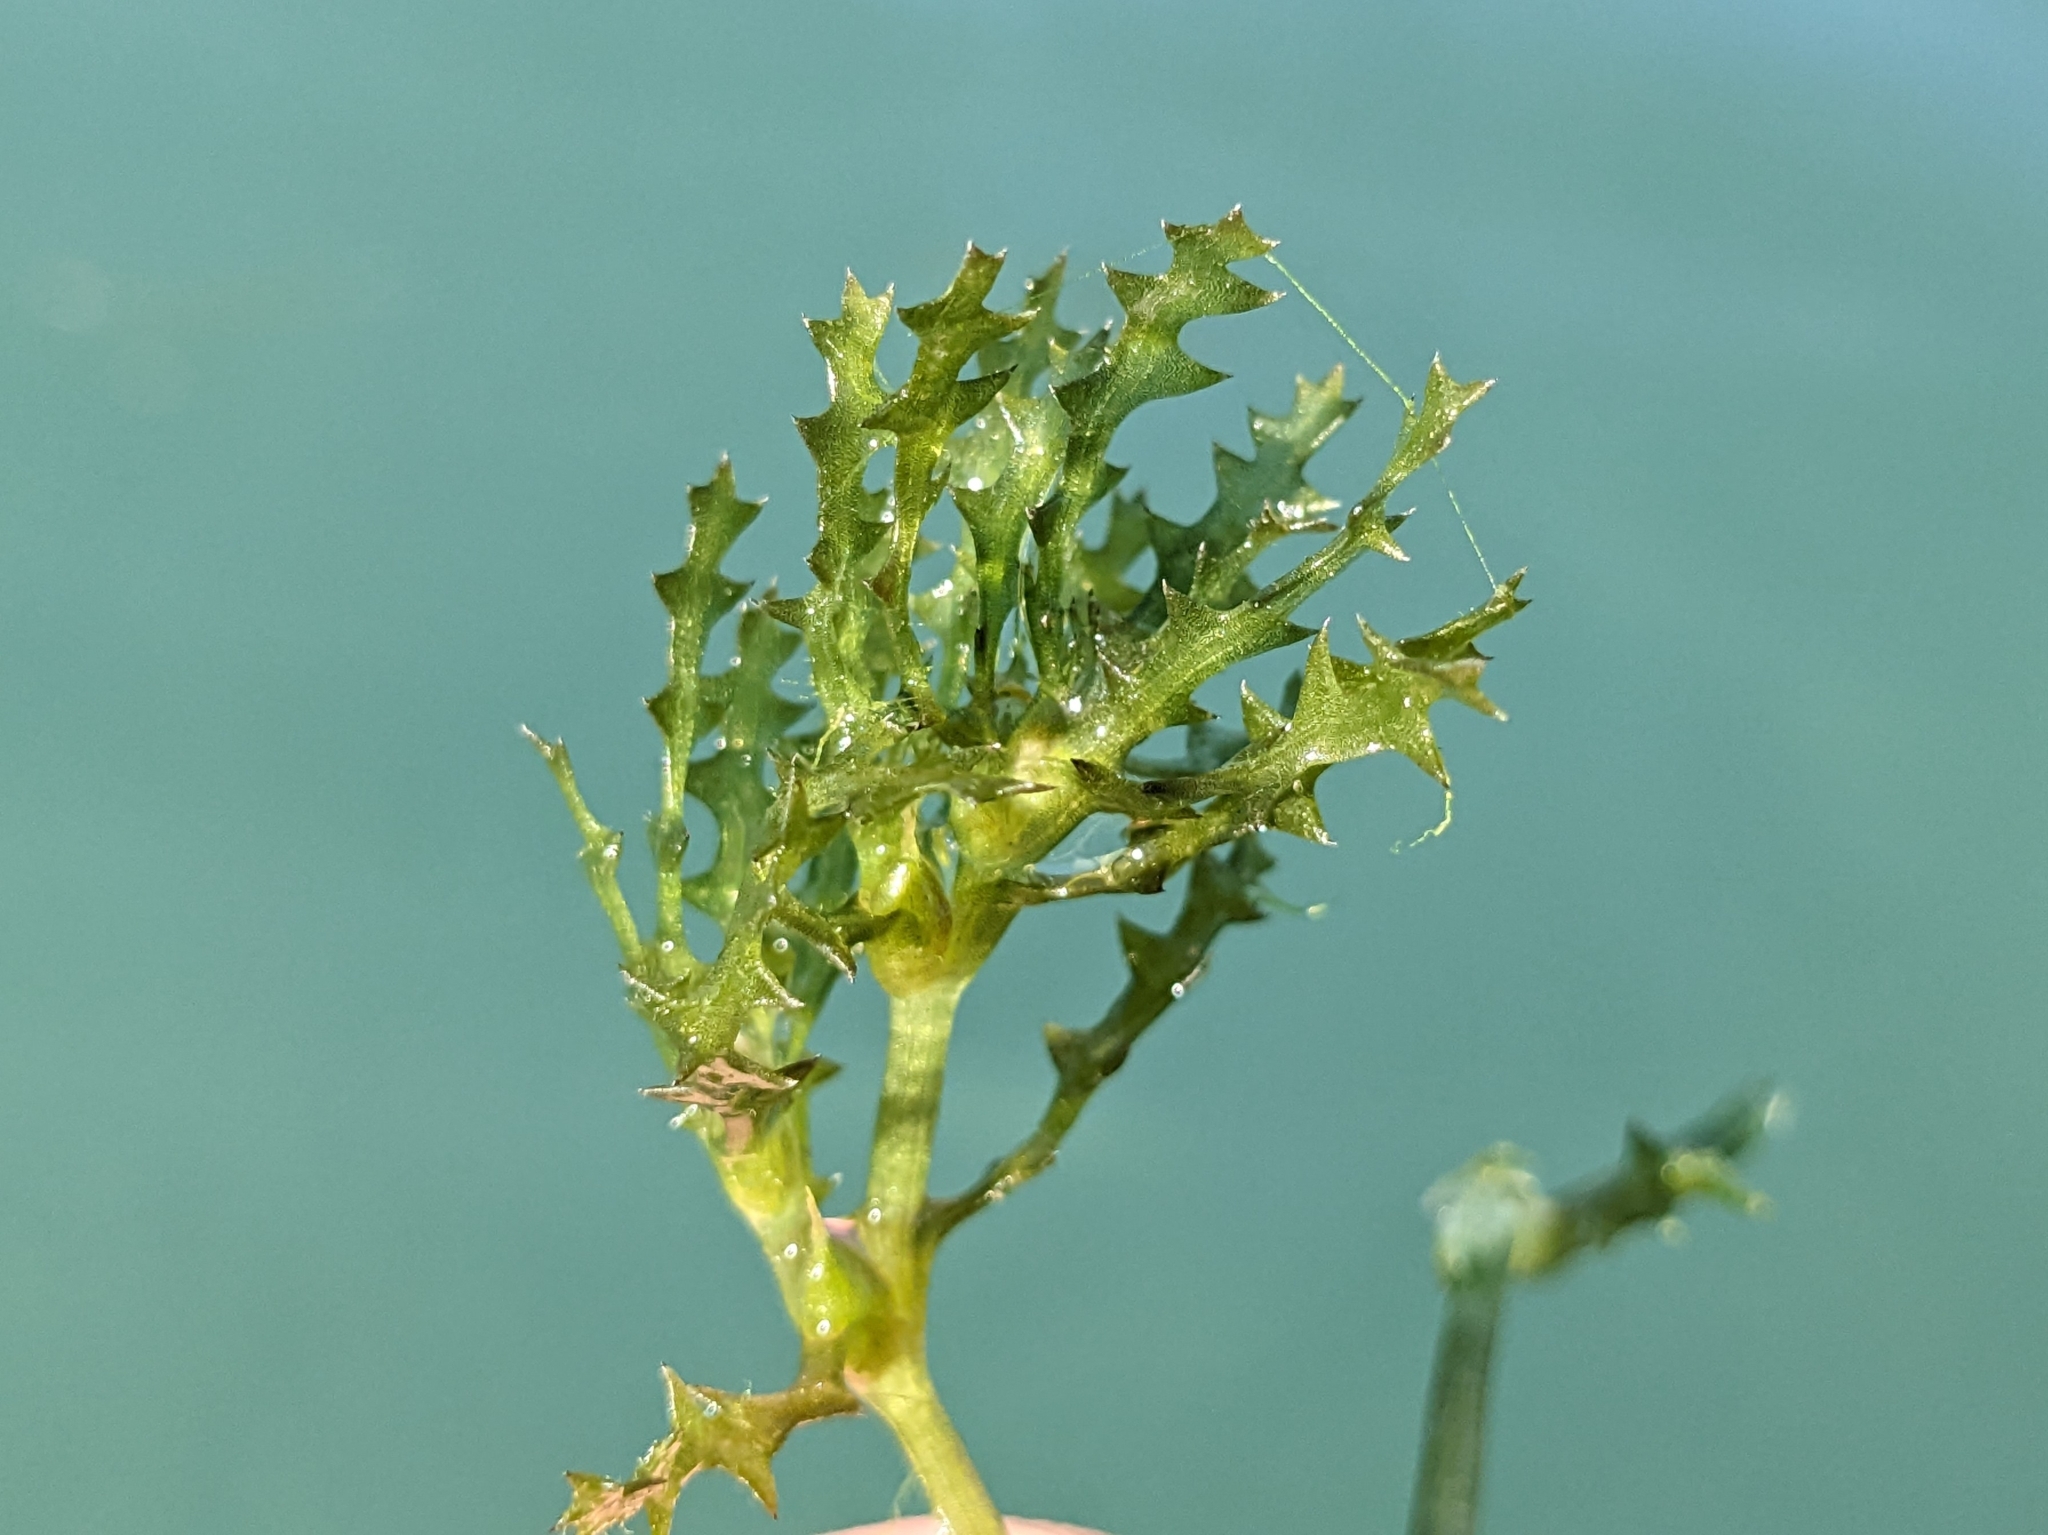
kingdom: Plantae
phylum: Tracheophyta
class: Liliopsida
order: Alismatales
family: Hydrocharitaceae
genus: Najas
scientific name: Najas marina
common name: Holly-leaved naiad
